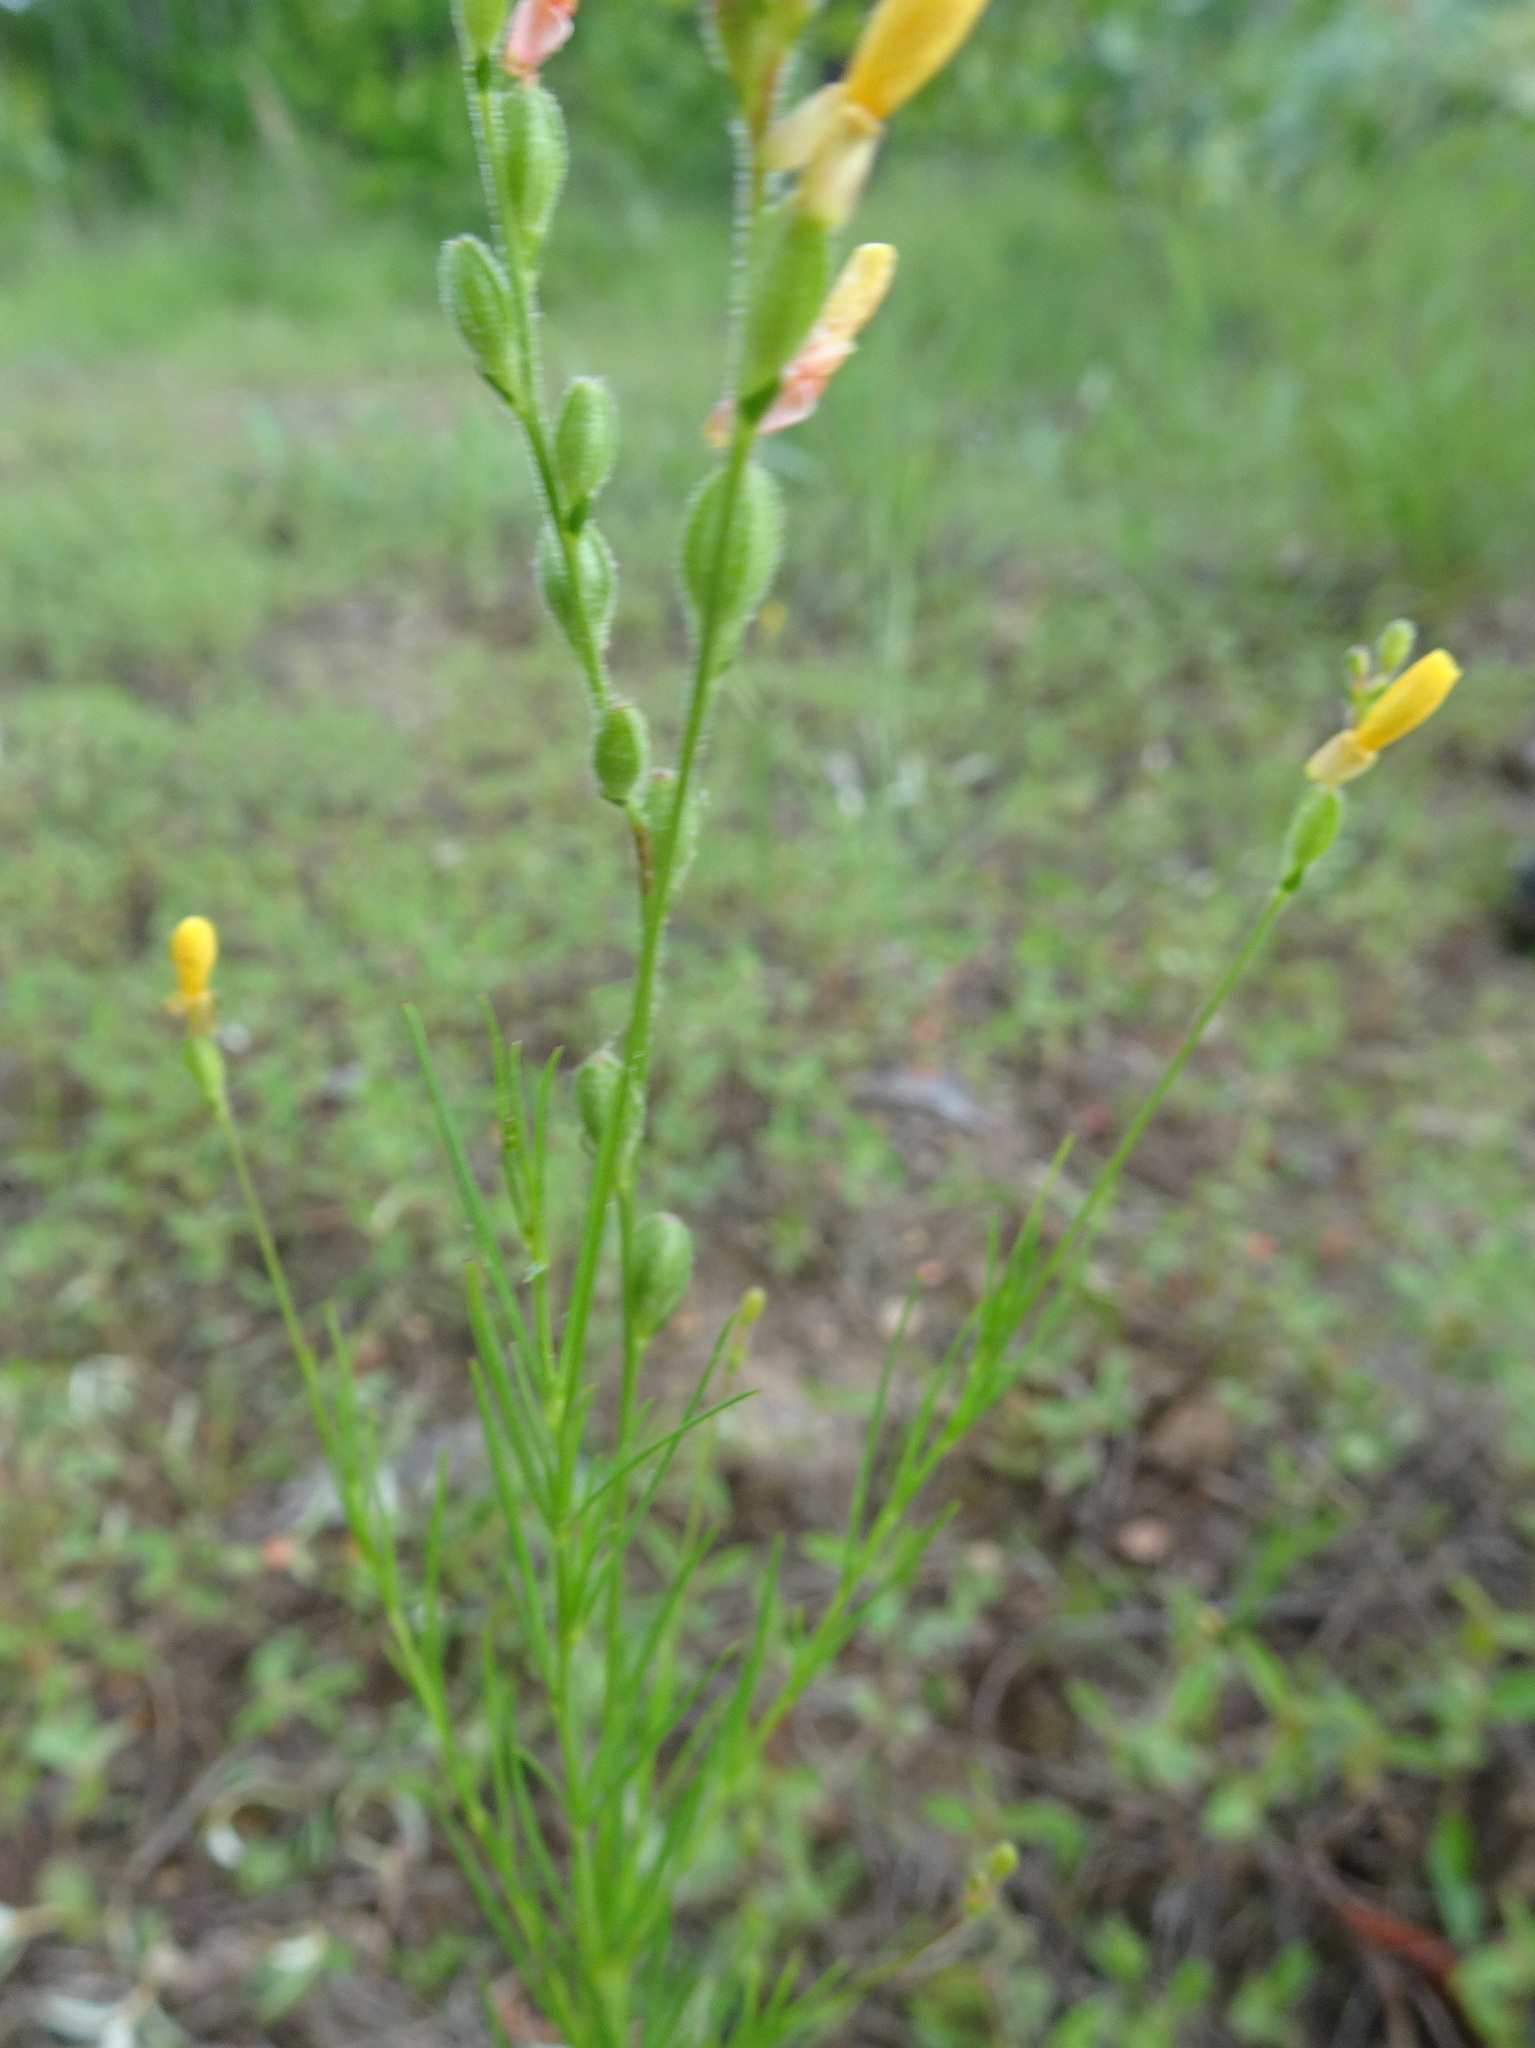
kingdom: Plantae
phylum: Tracheophyta
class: Magnoliopsida
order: Myrtales
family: Onagraceae
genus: Oenothera
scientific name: Oenothera linifolia
